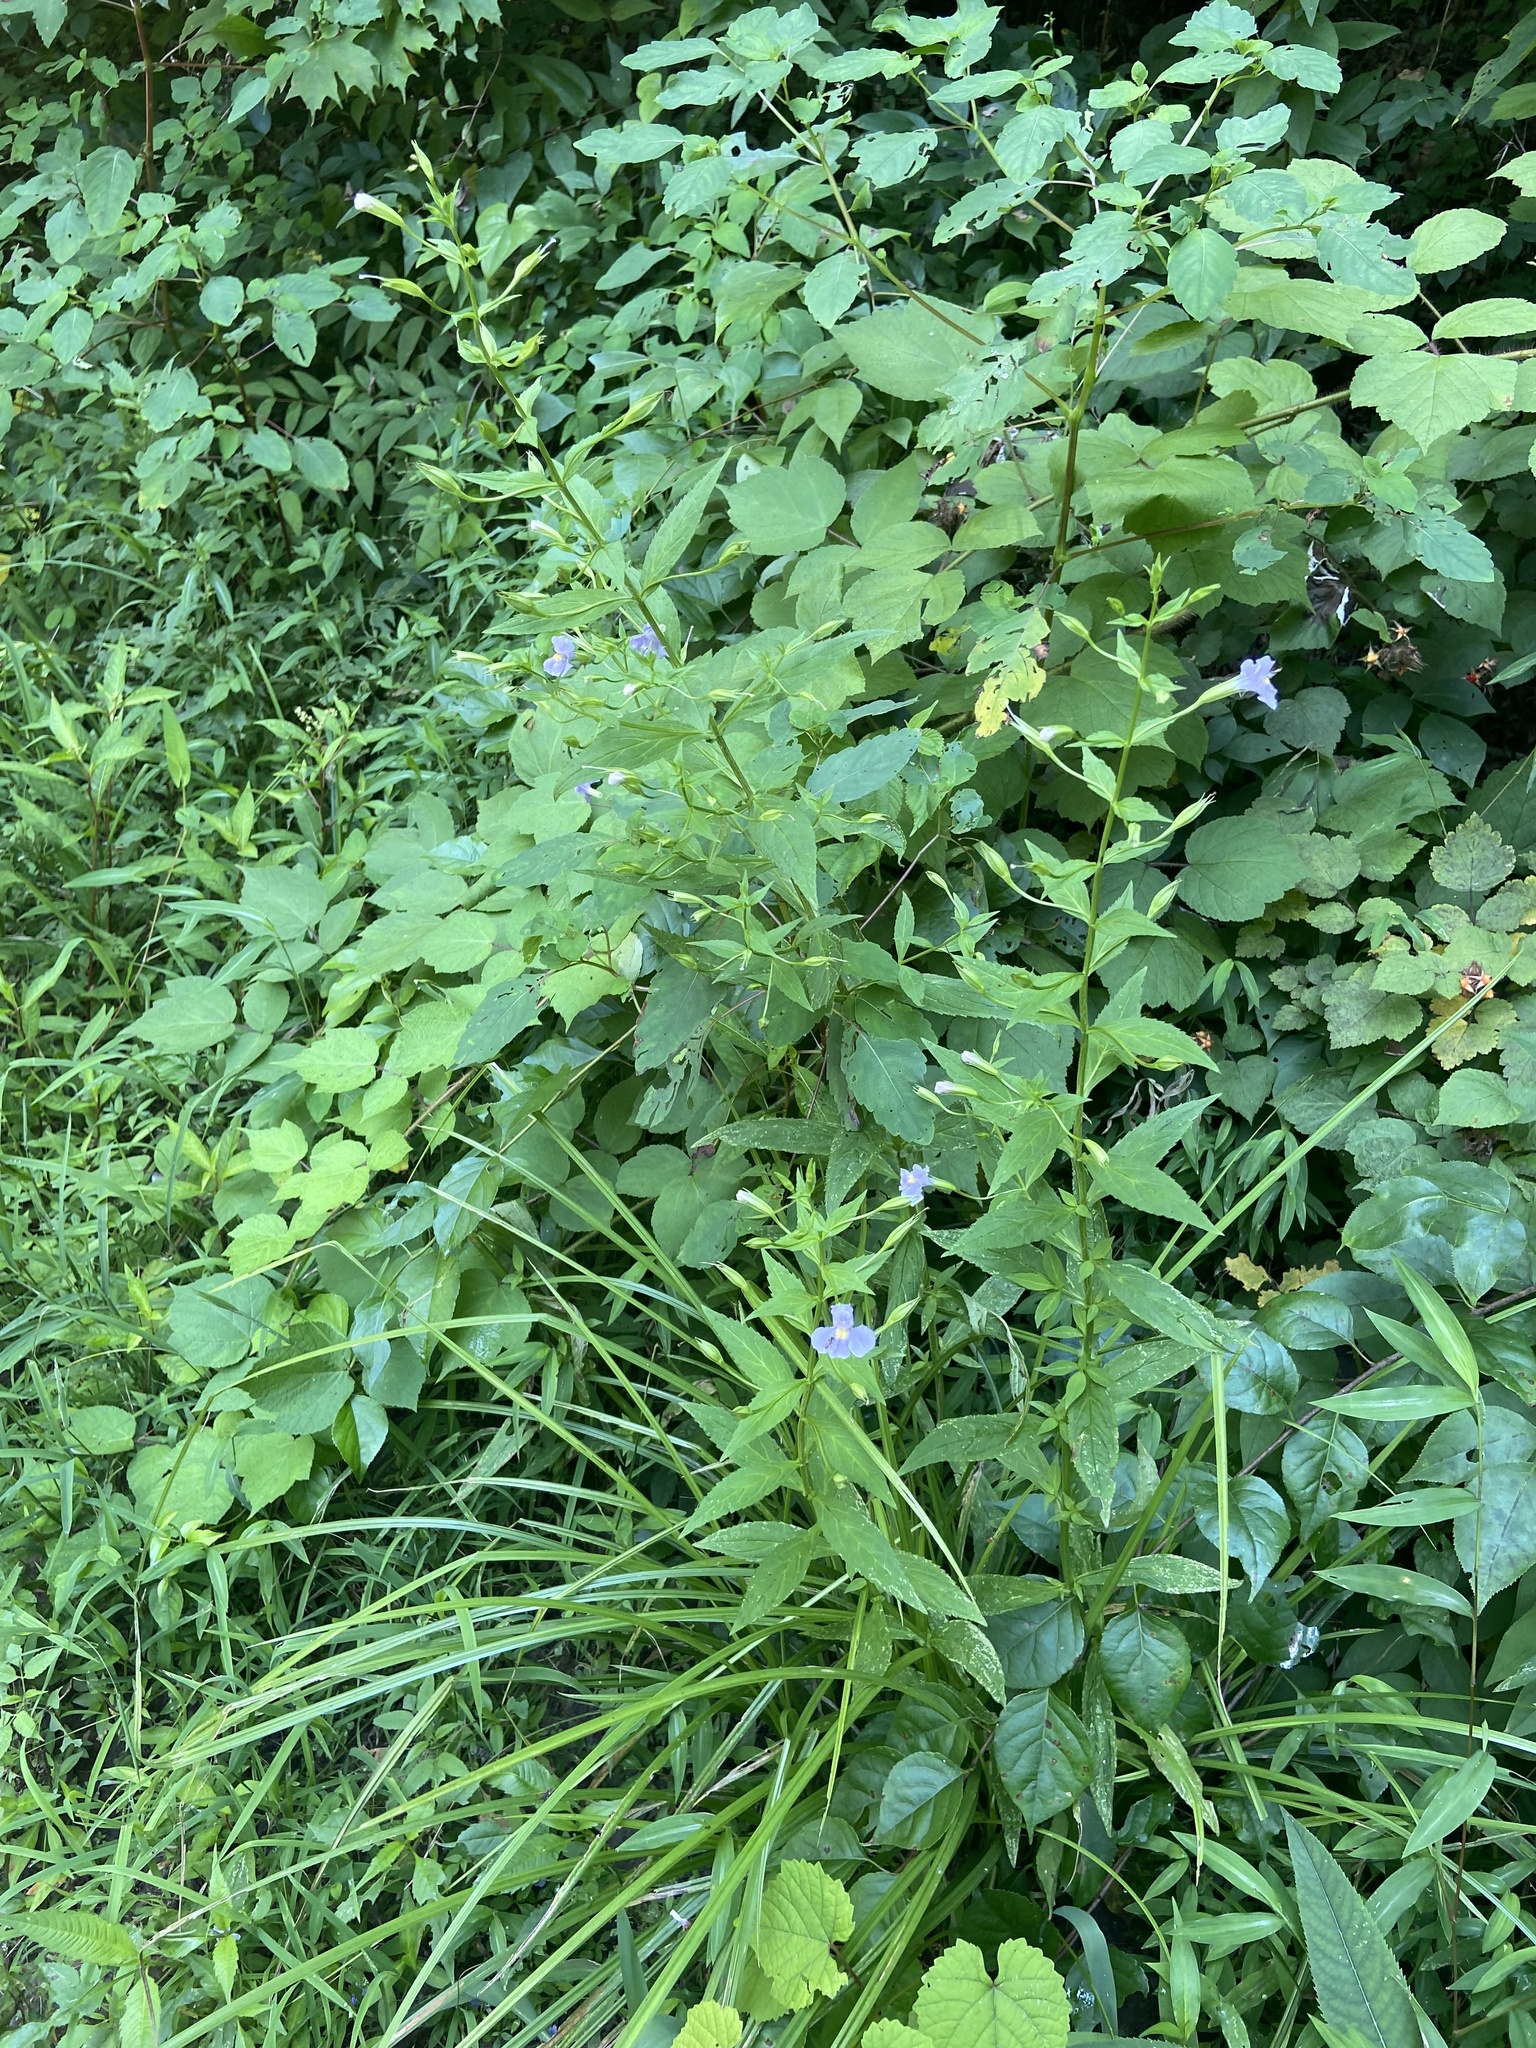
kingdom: Plantae
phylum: Tracheophyta
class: Magnoliopsida
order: Lamiales
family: Phrymaceae
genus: Mimulus
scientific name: Mimulus ringens
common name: Allegheny monkeyflower
